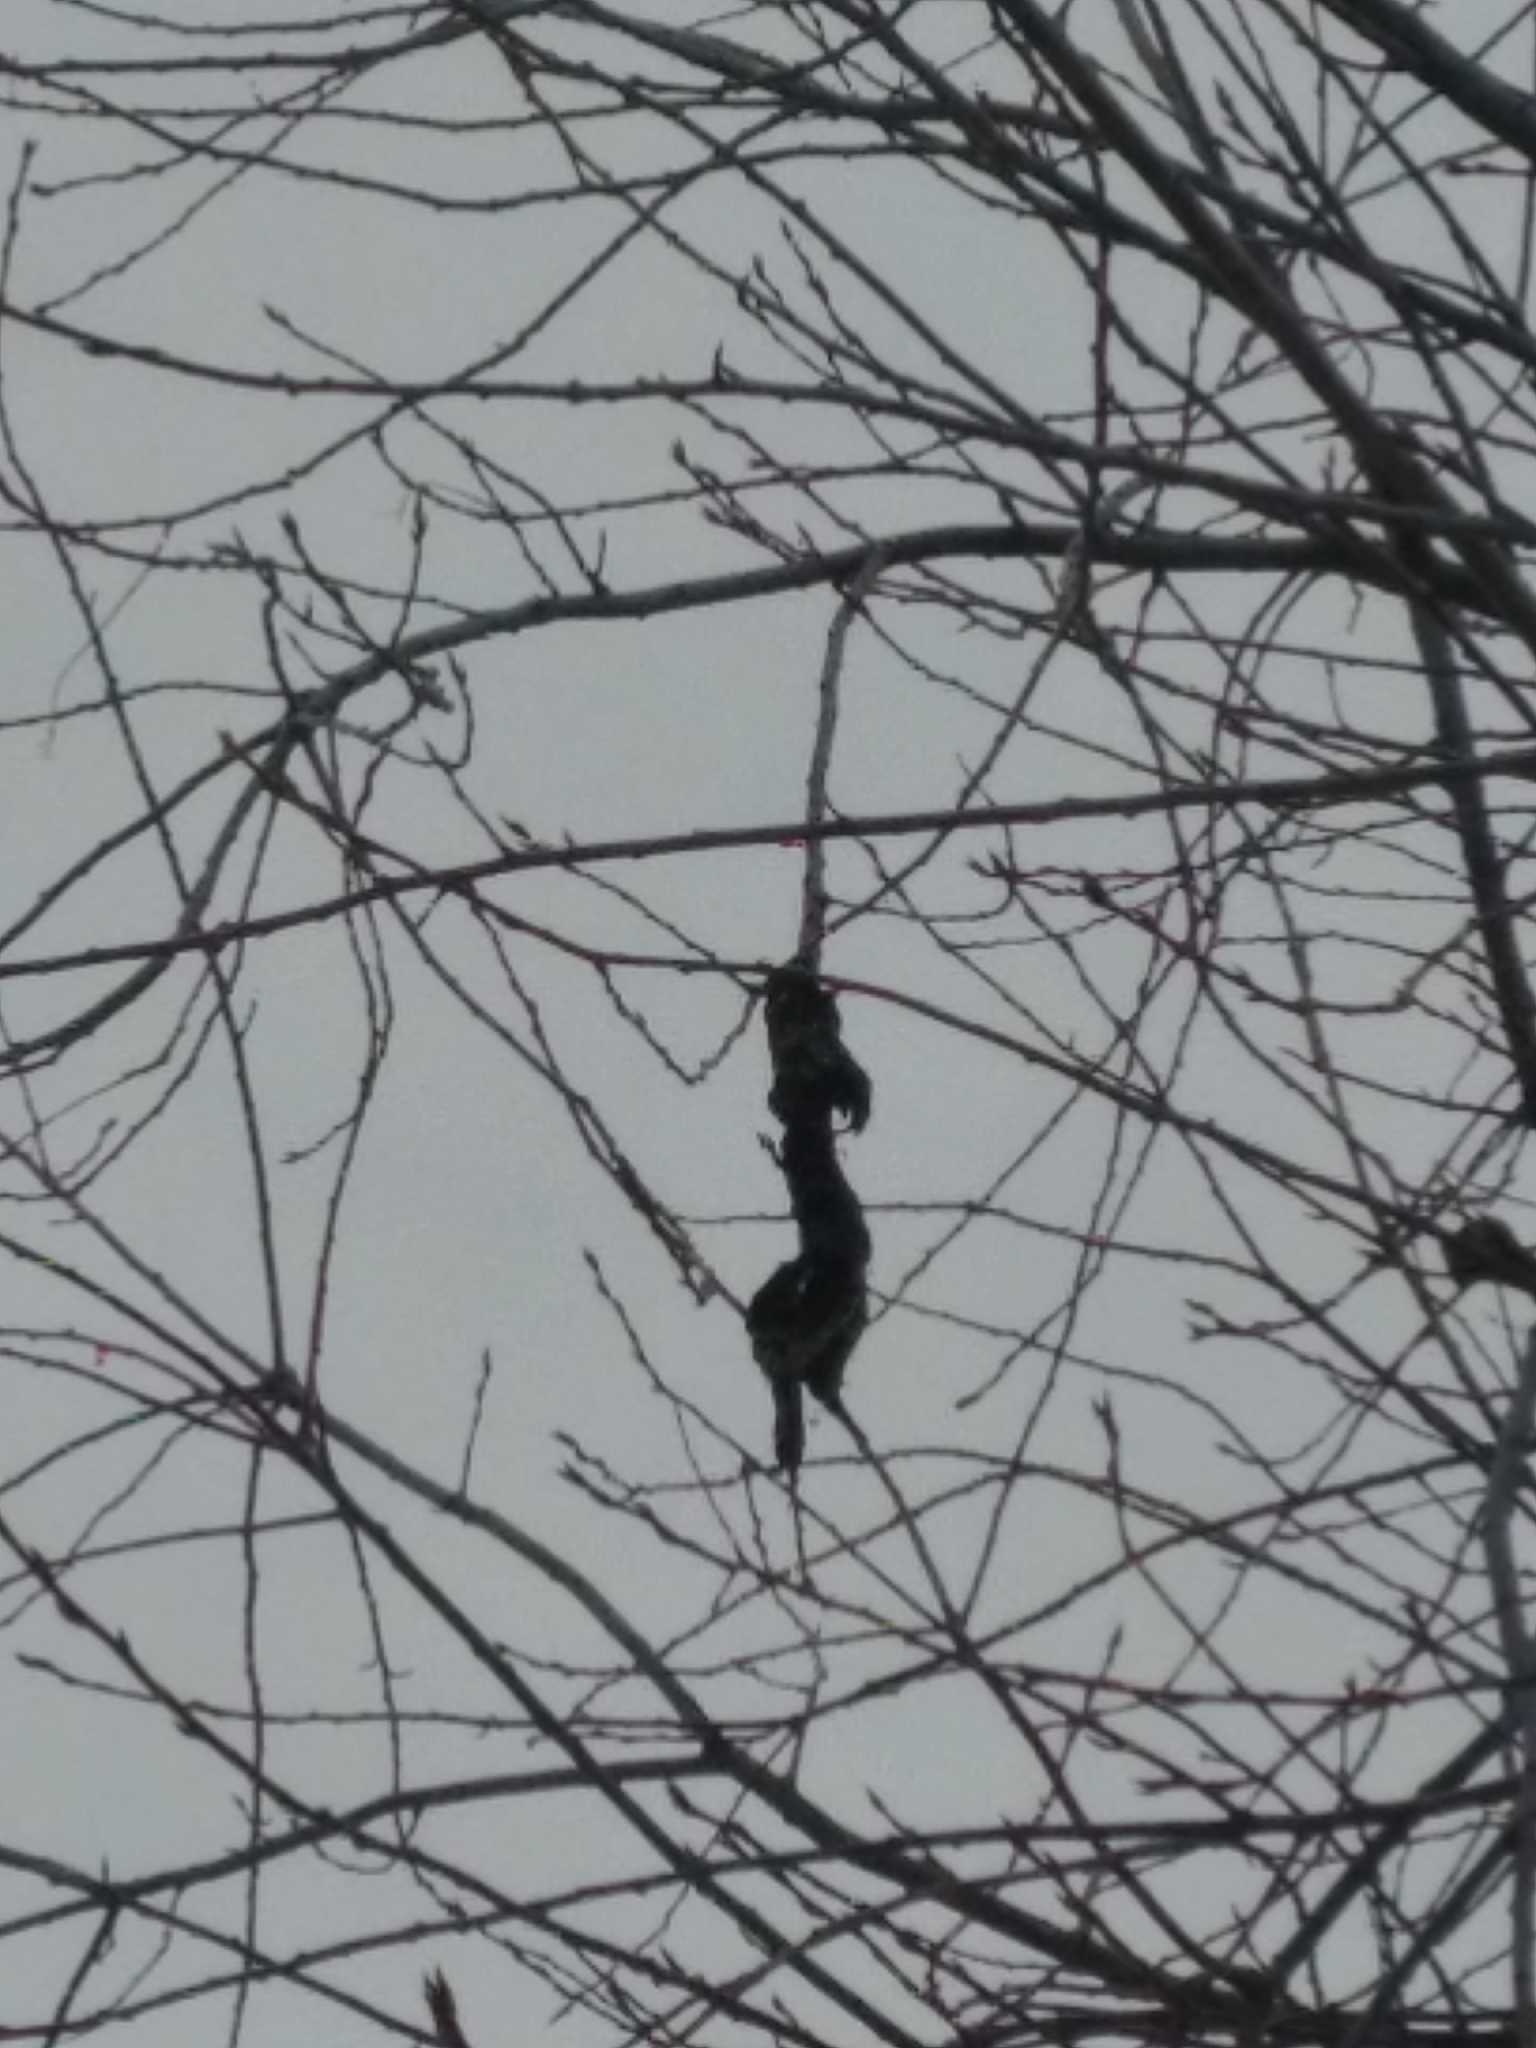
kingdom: Fungi
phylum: Ascomycota
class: Dothideomycetes
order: Venturiales
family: Venturiaceae
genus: Apiosporina
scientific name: Apiosporina morbosa
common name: Black knot
